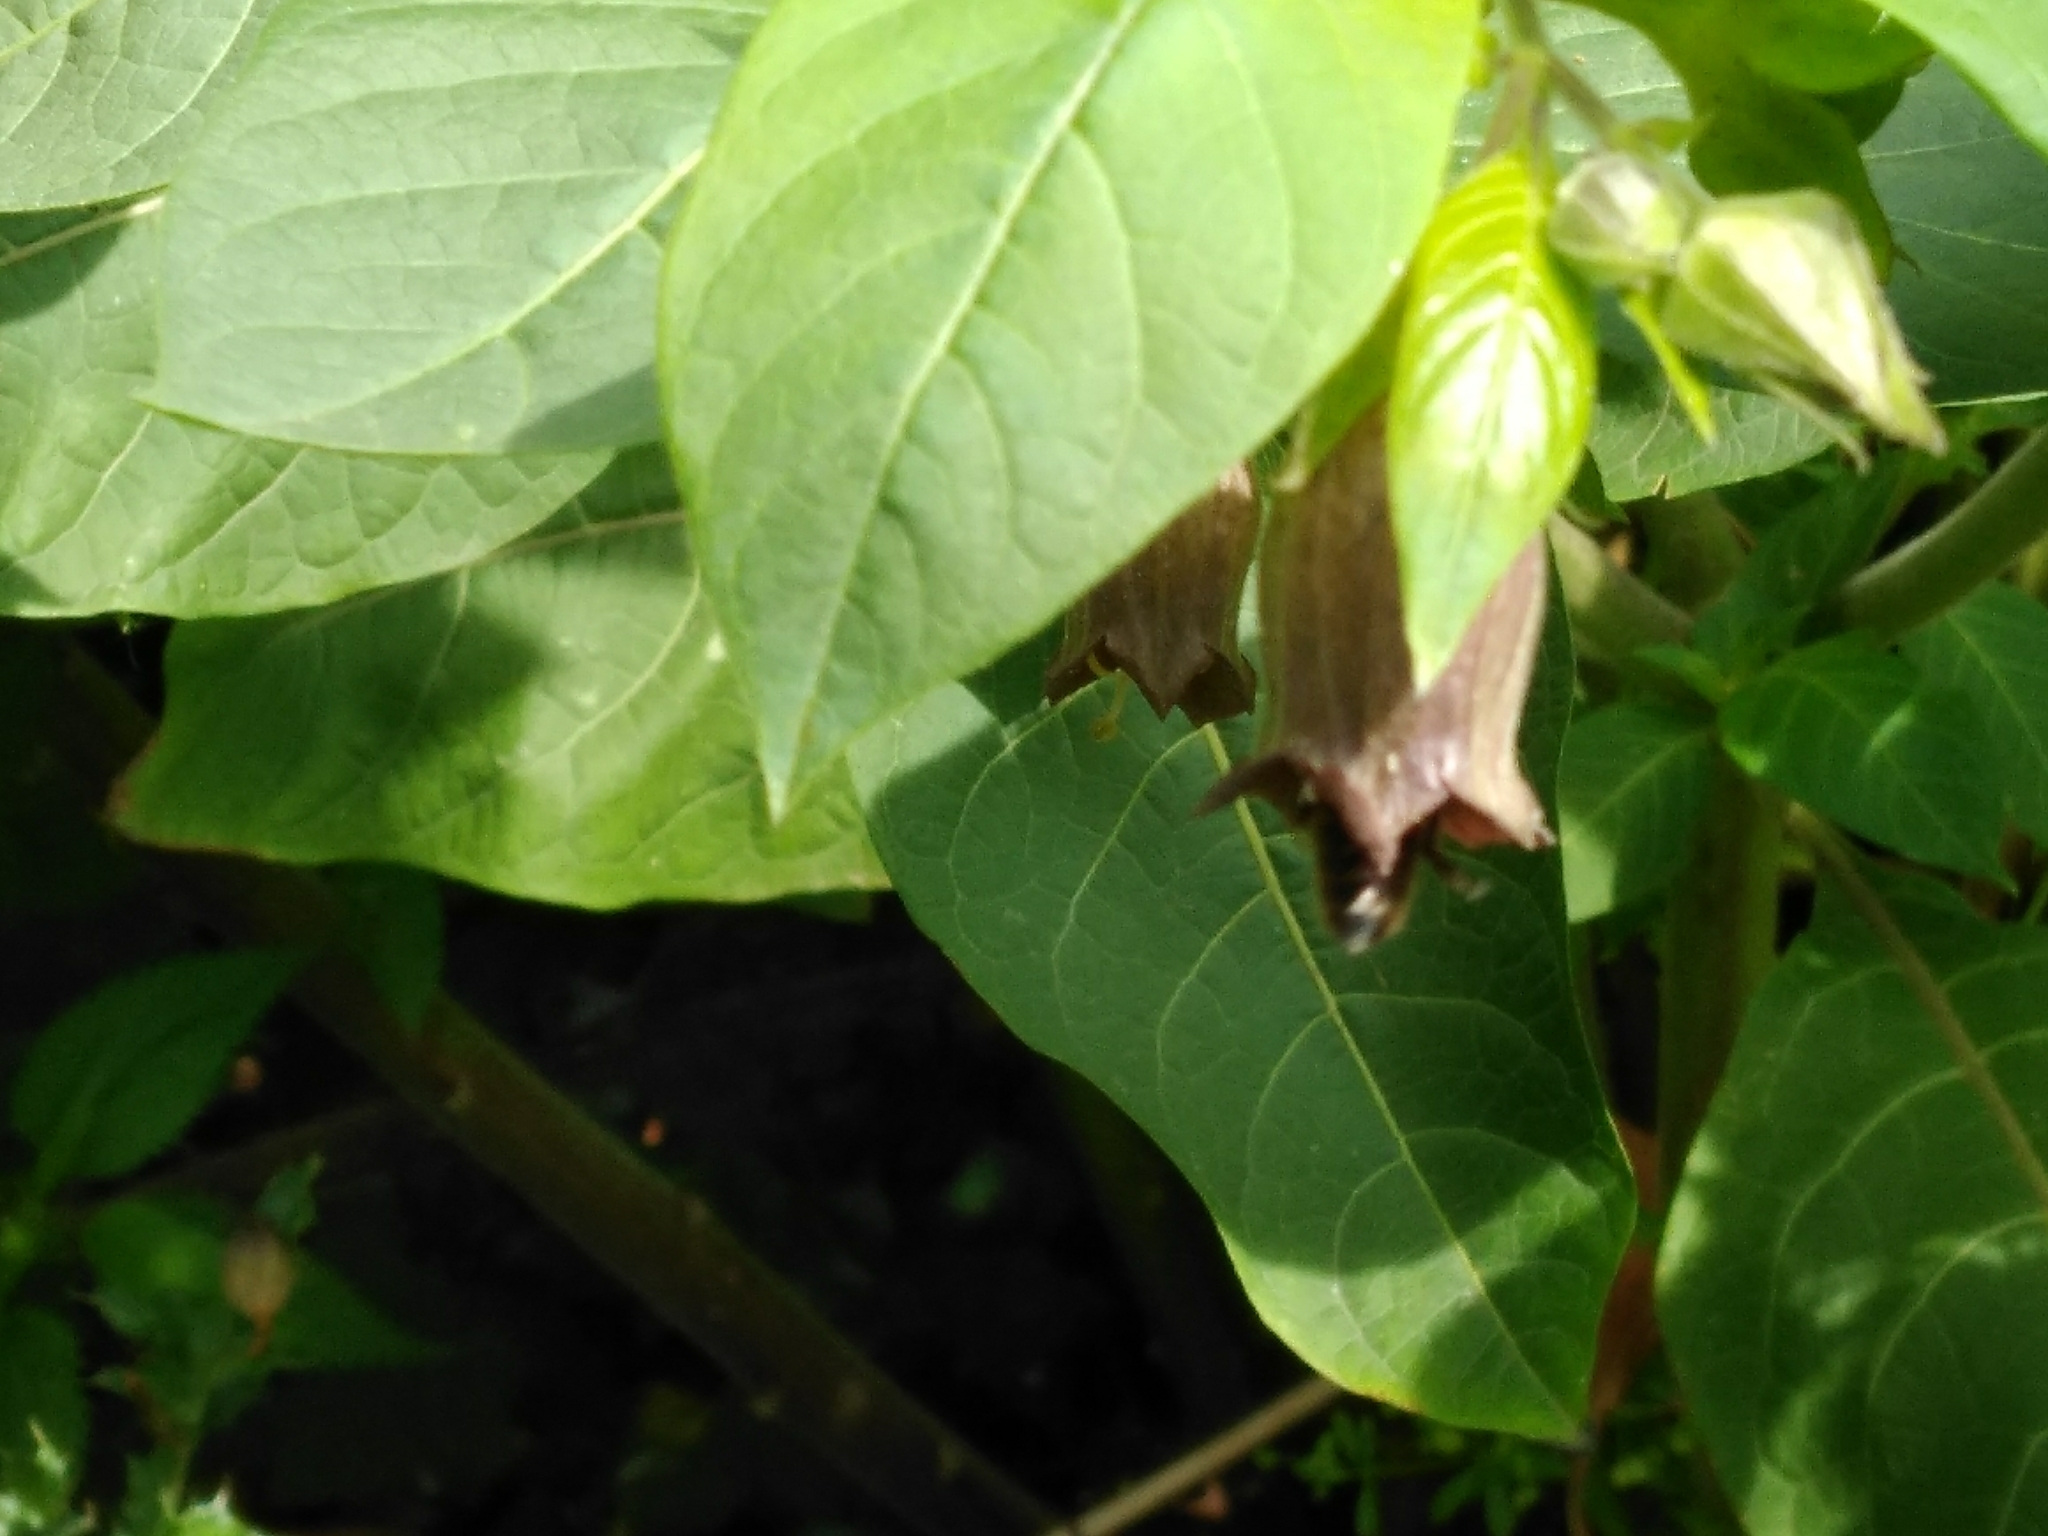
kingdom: Plantae
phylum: Tracheophyta
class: Magnoliopsida
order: Solanales
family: Solanaceae
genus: Atropa
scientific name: Atropa belladonna
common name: Deadly nightshade
